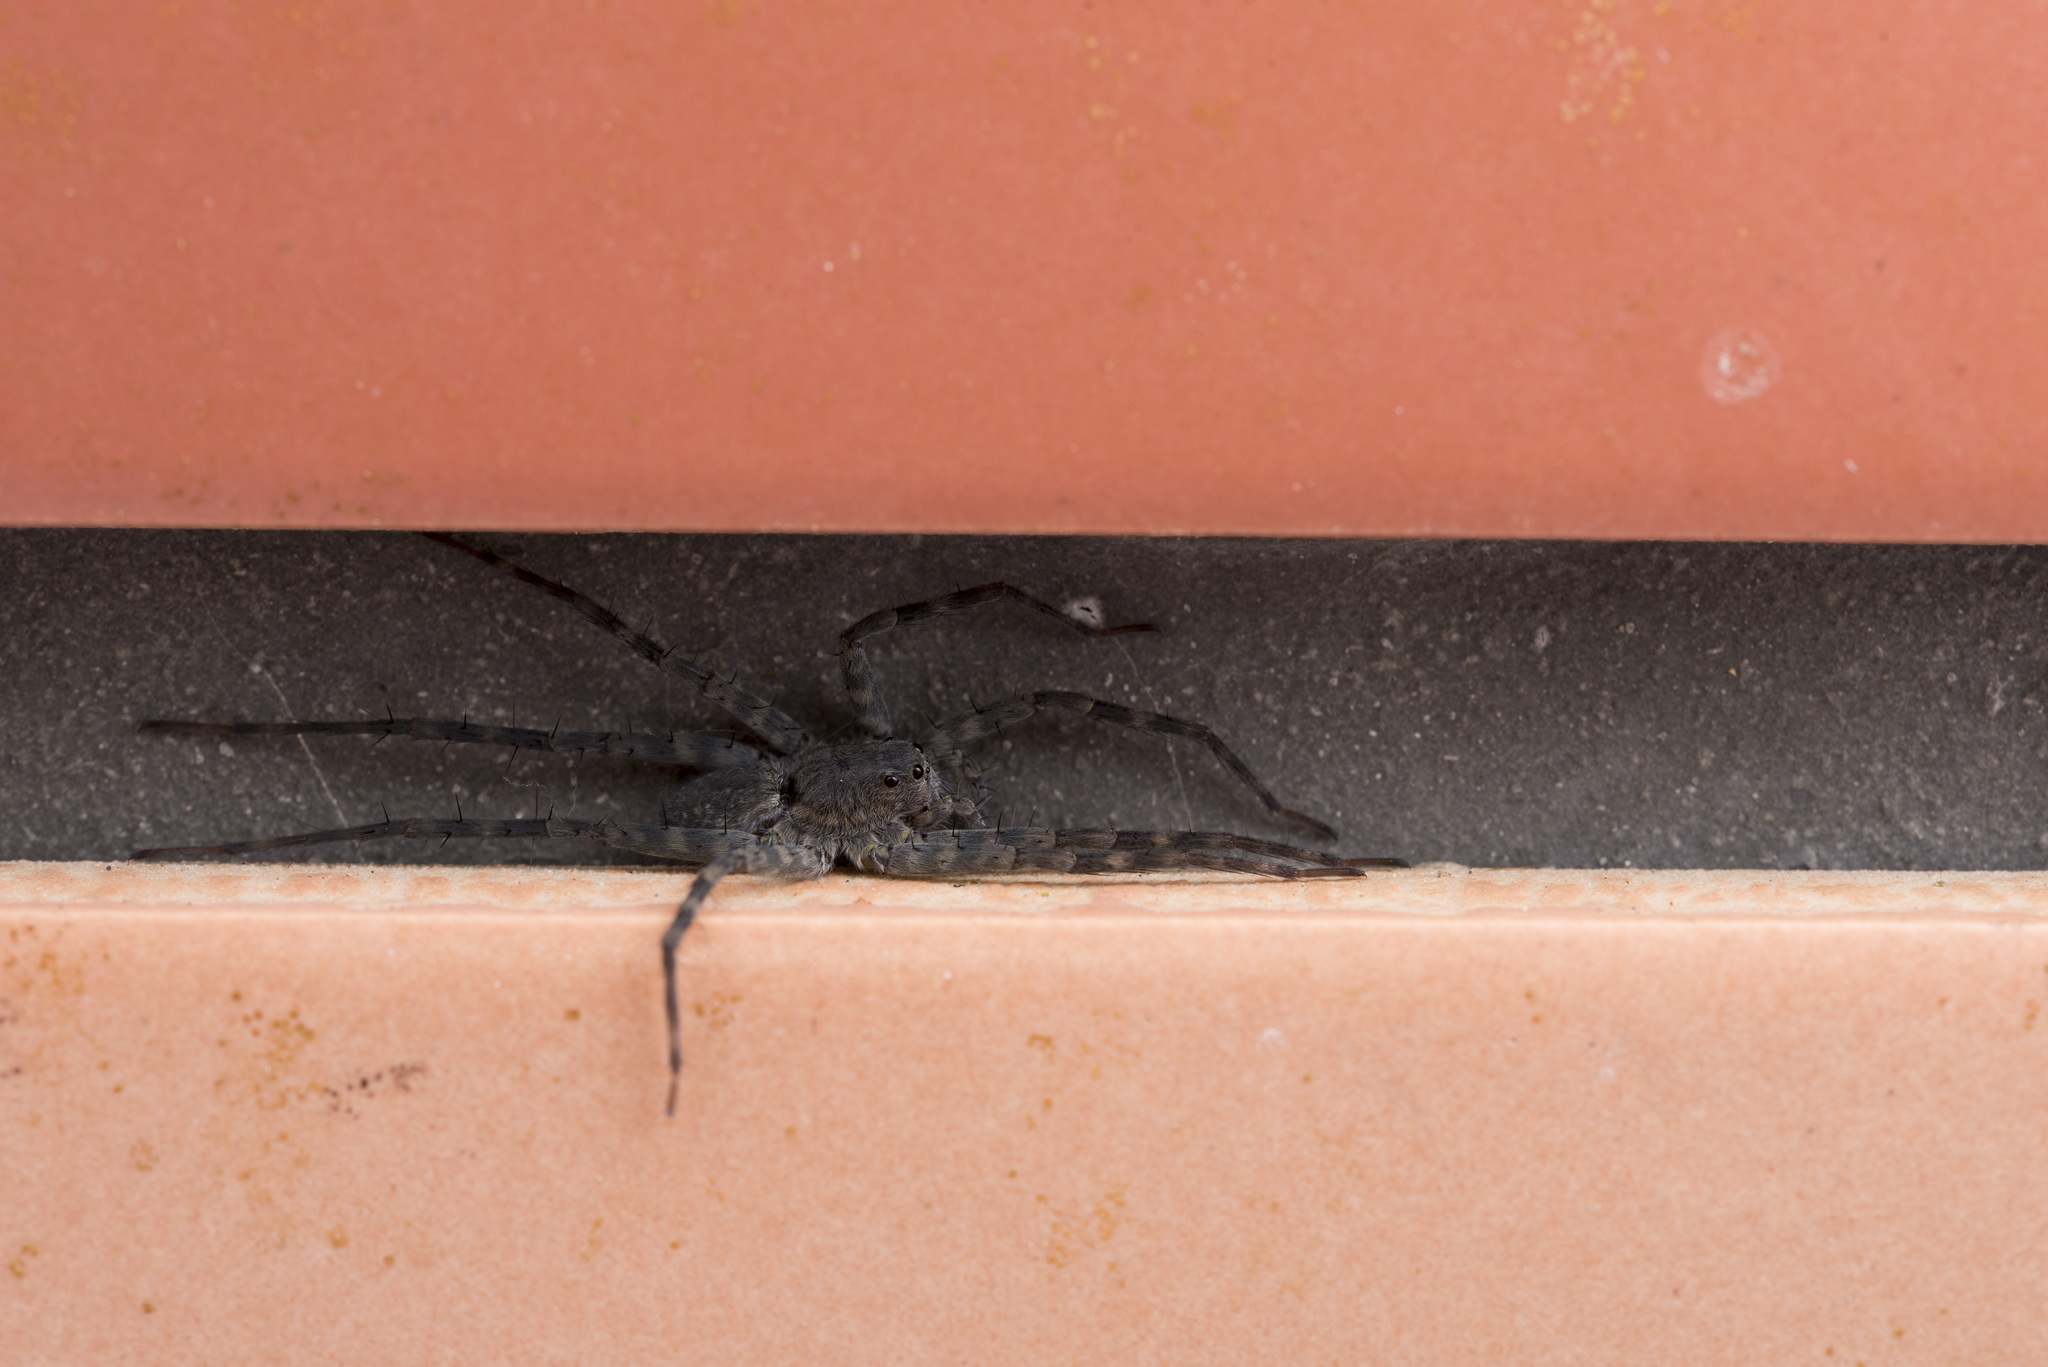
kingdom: Animalia
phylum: Arthropoda
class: Arachnida
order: Araneae
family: Lycosidae
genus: Pardosa
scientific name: Pardosa jambaruensis
